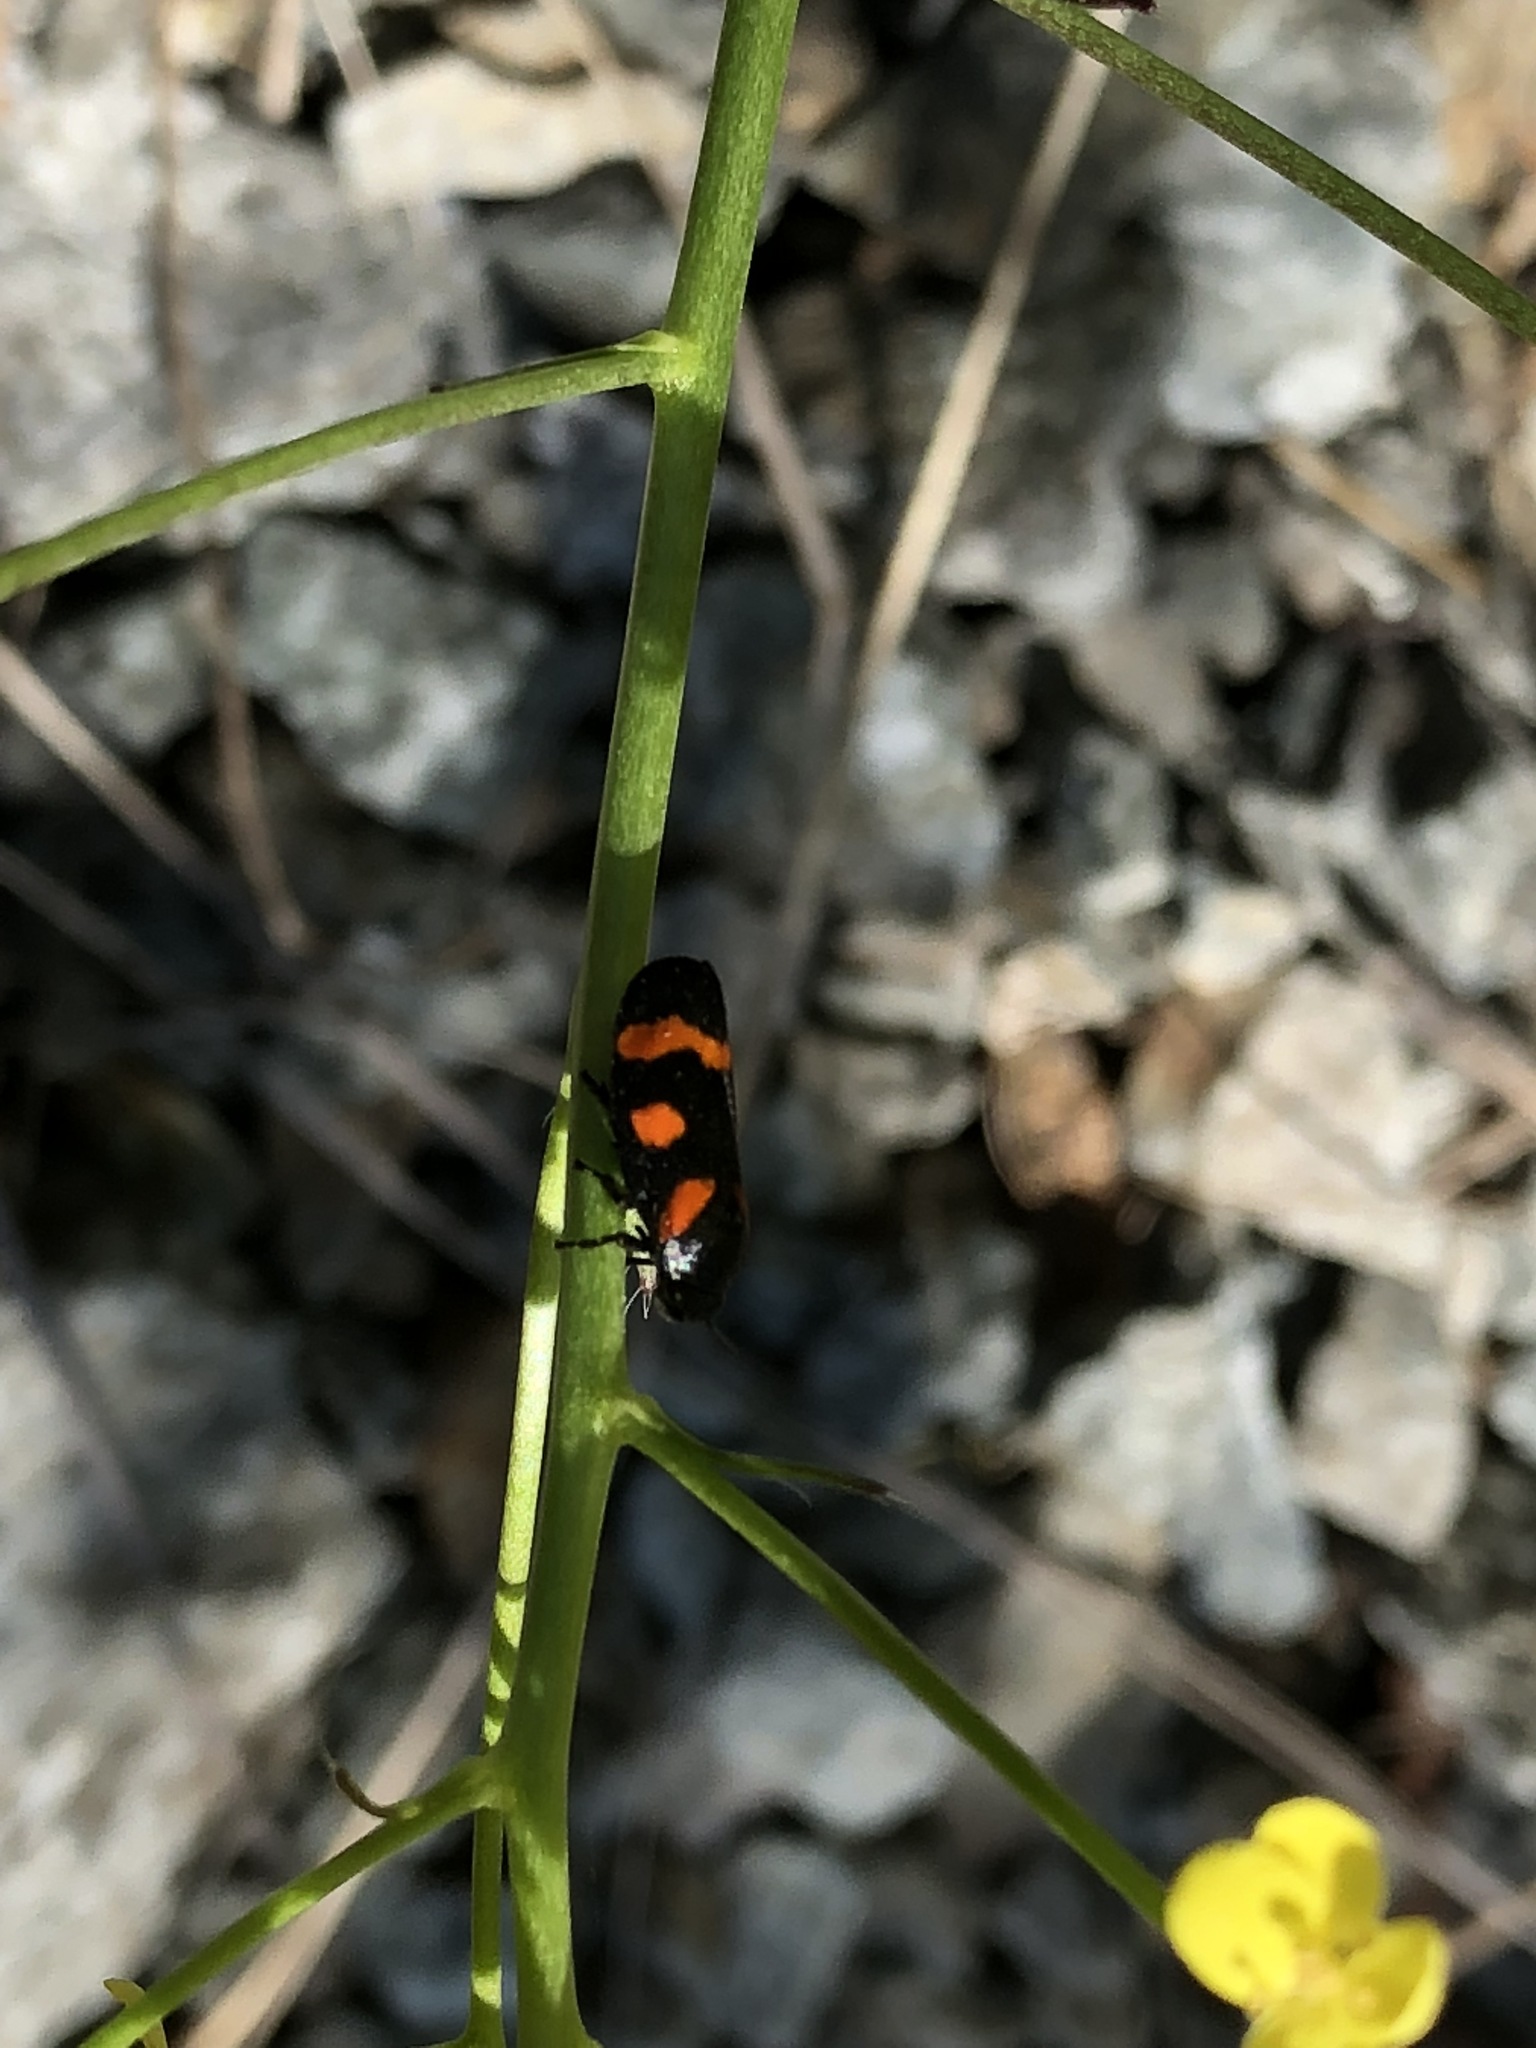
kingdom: Animalia
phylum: Arthropoda
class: Insecta
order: Hemiptera
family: Cercopidae
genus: Cercopis
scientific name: Cercopis sanguinolenta
